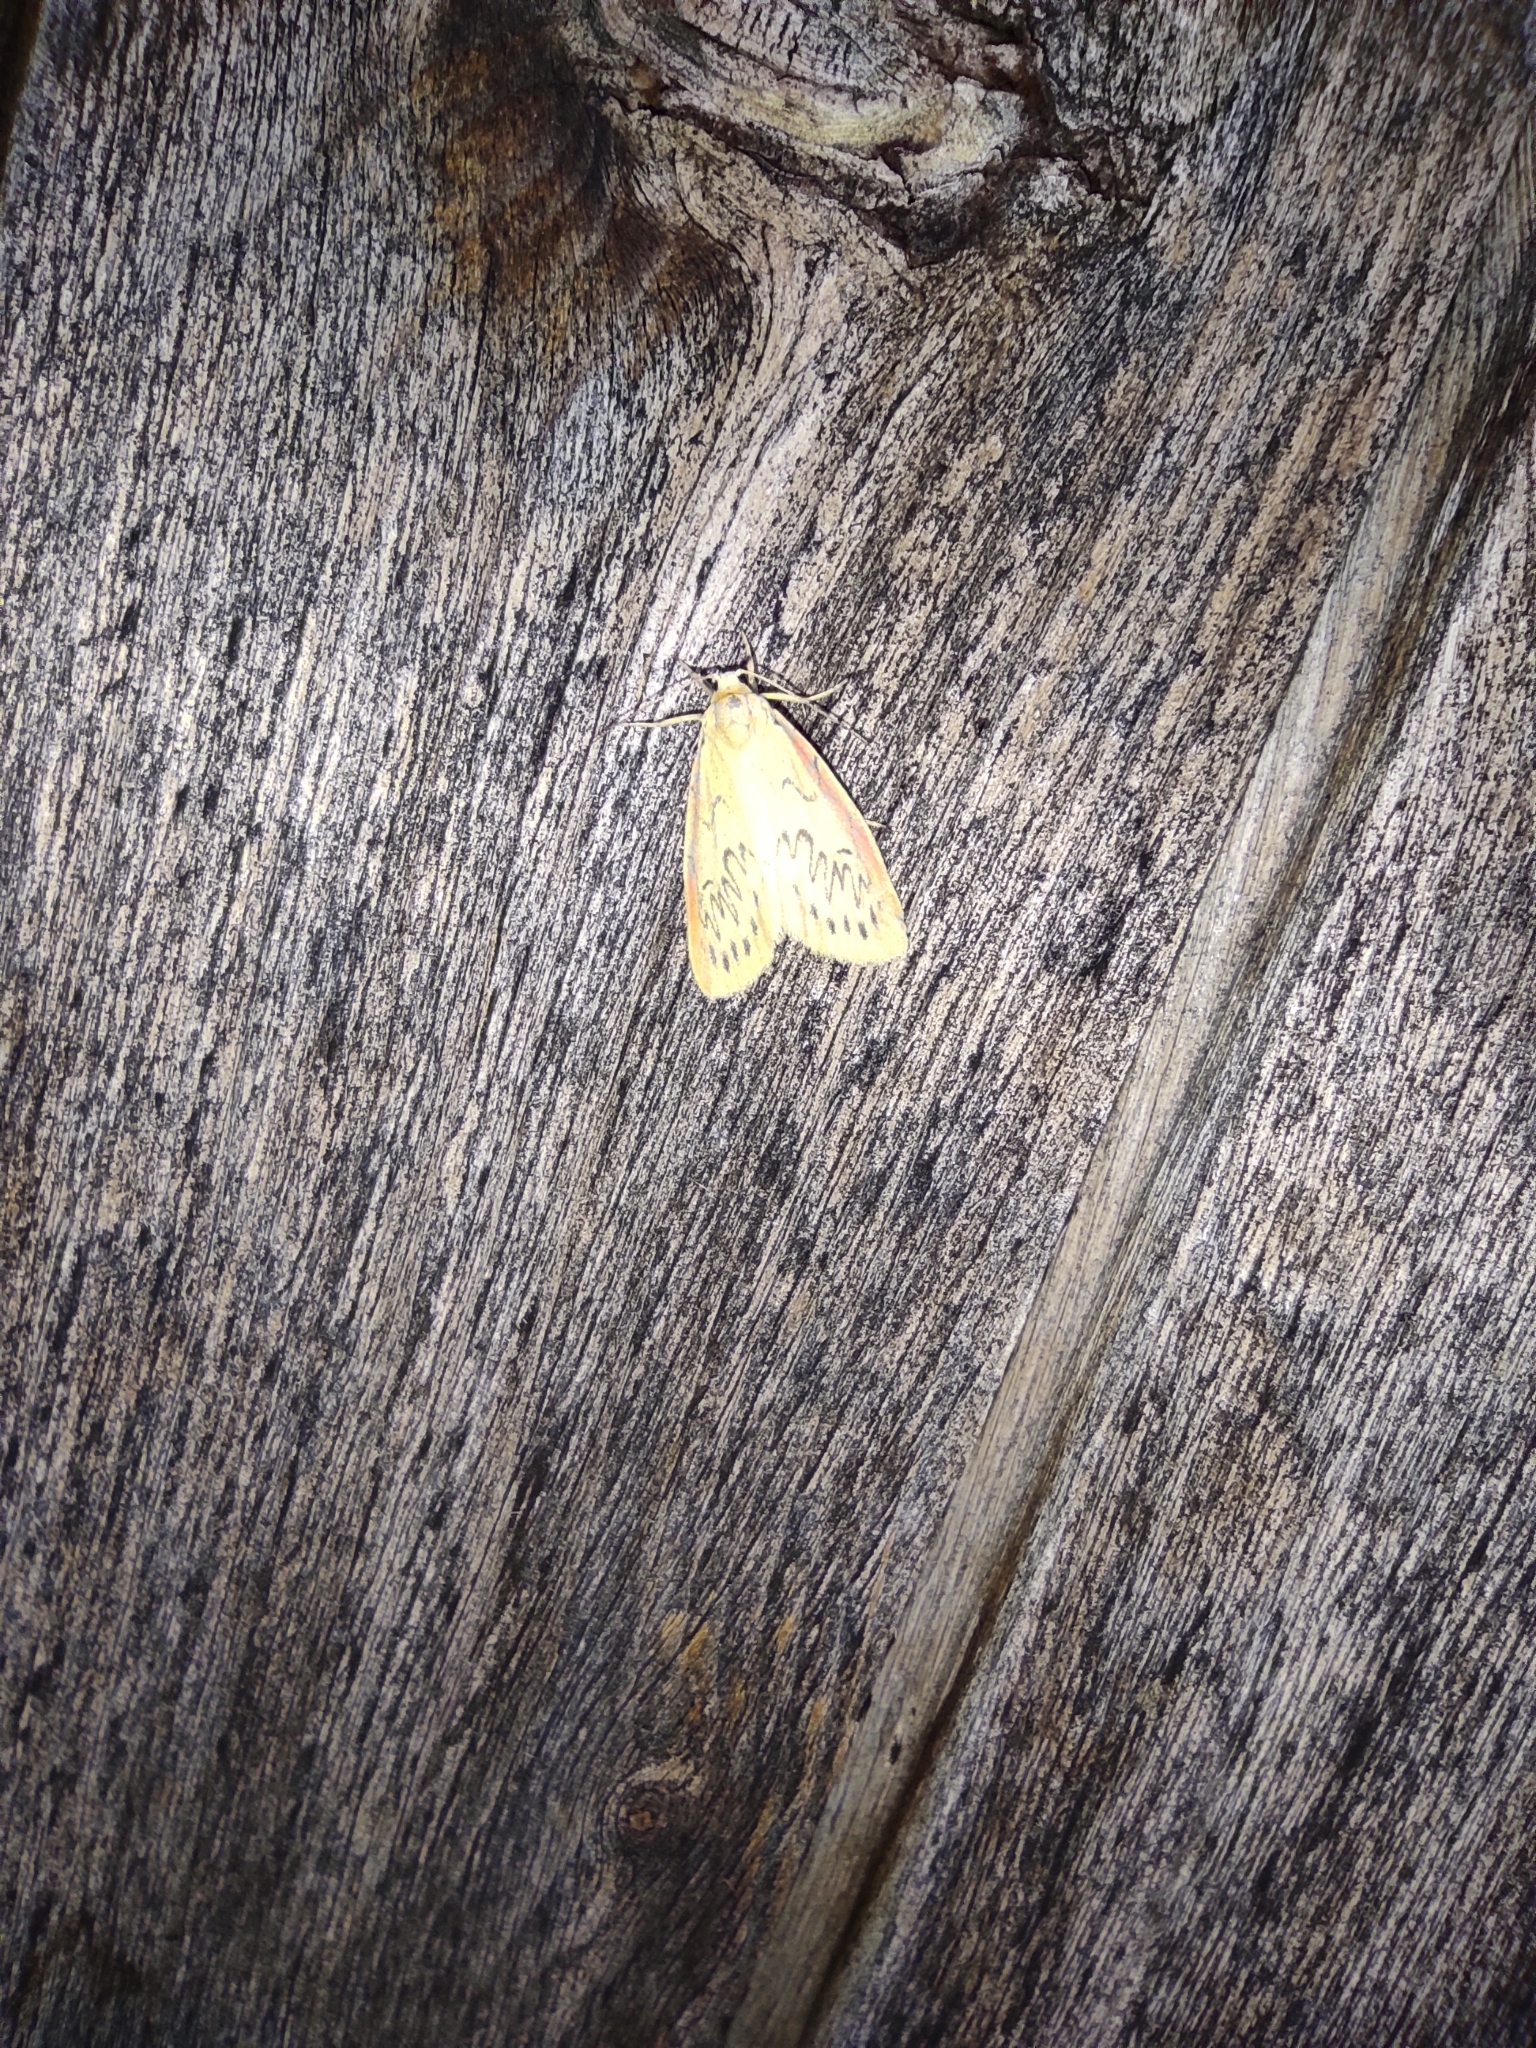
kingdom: Animalia
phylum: Arthropoda
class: Insecta
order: Lepidoptera
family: Erebidae
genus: Miltochrista
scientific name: Miltochrista miniata
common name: Rosy footman
